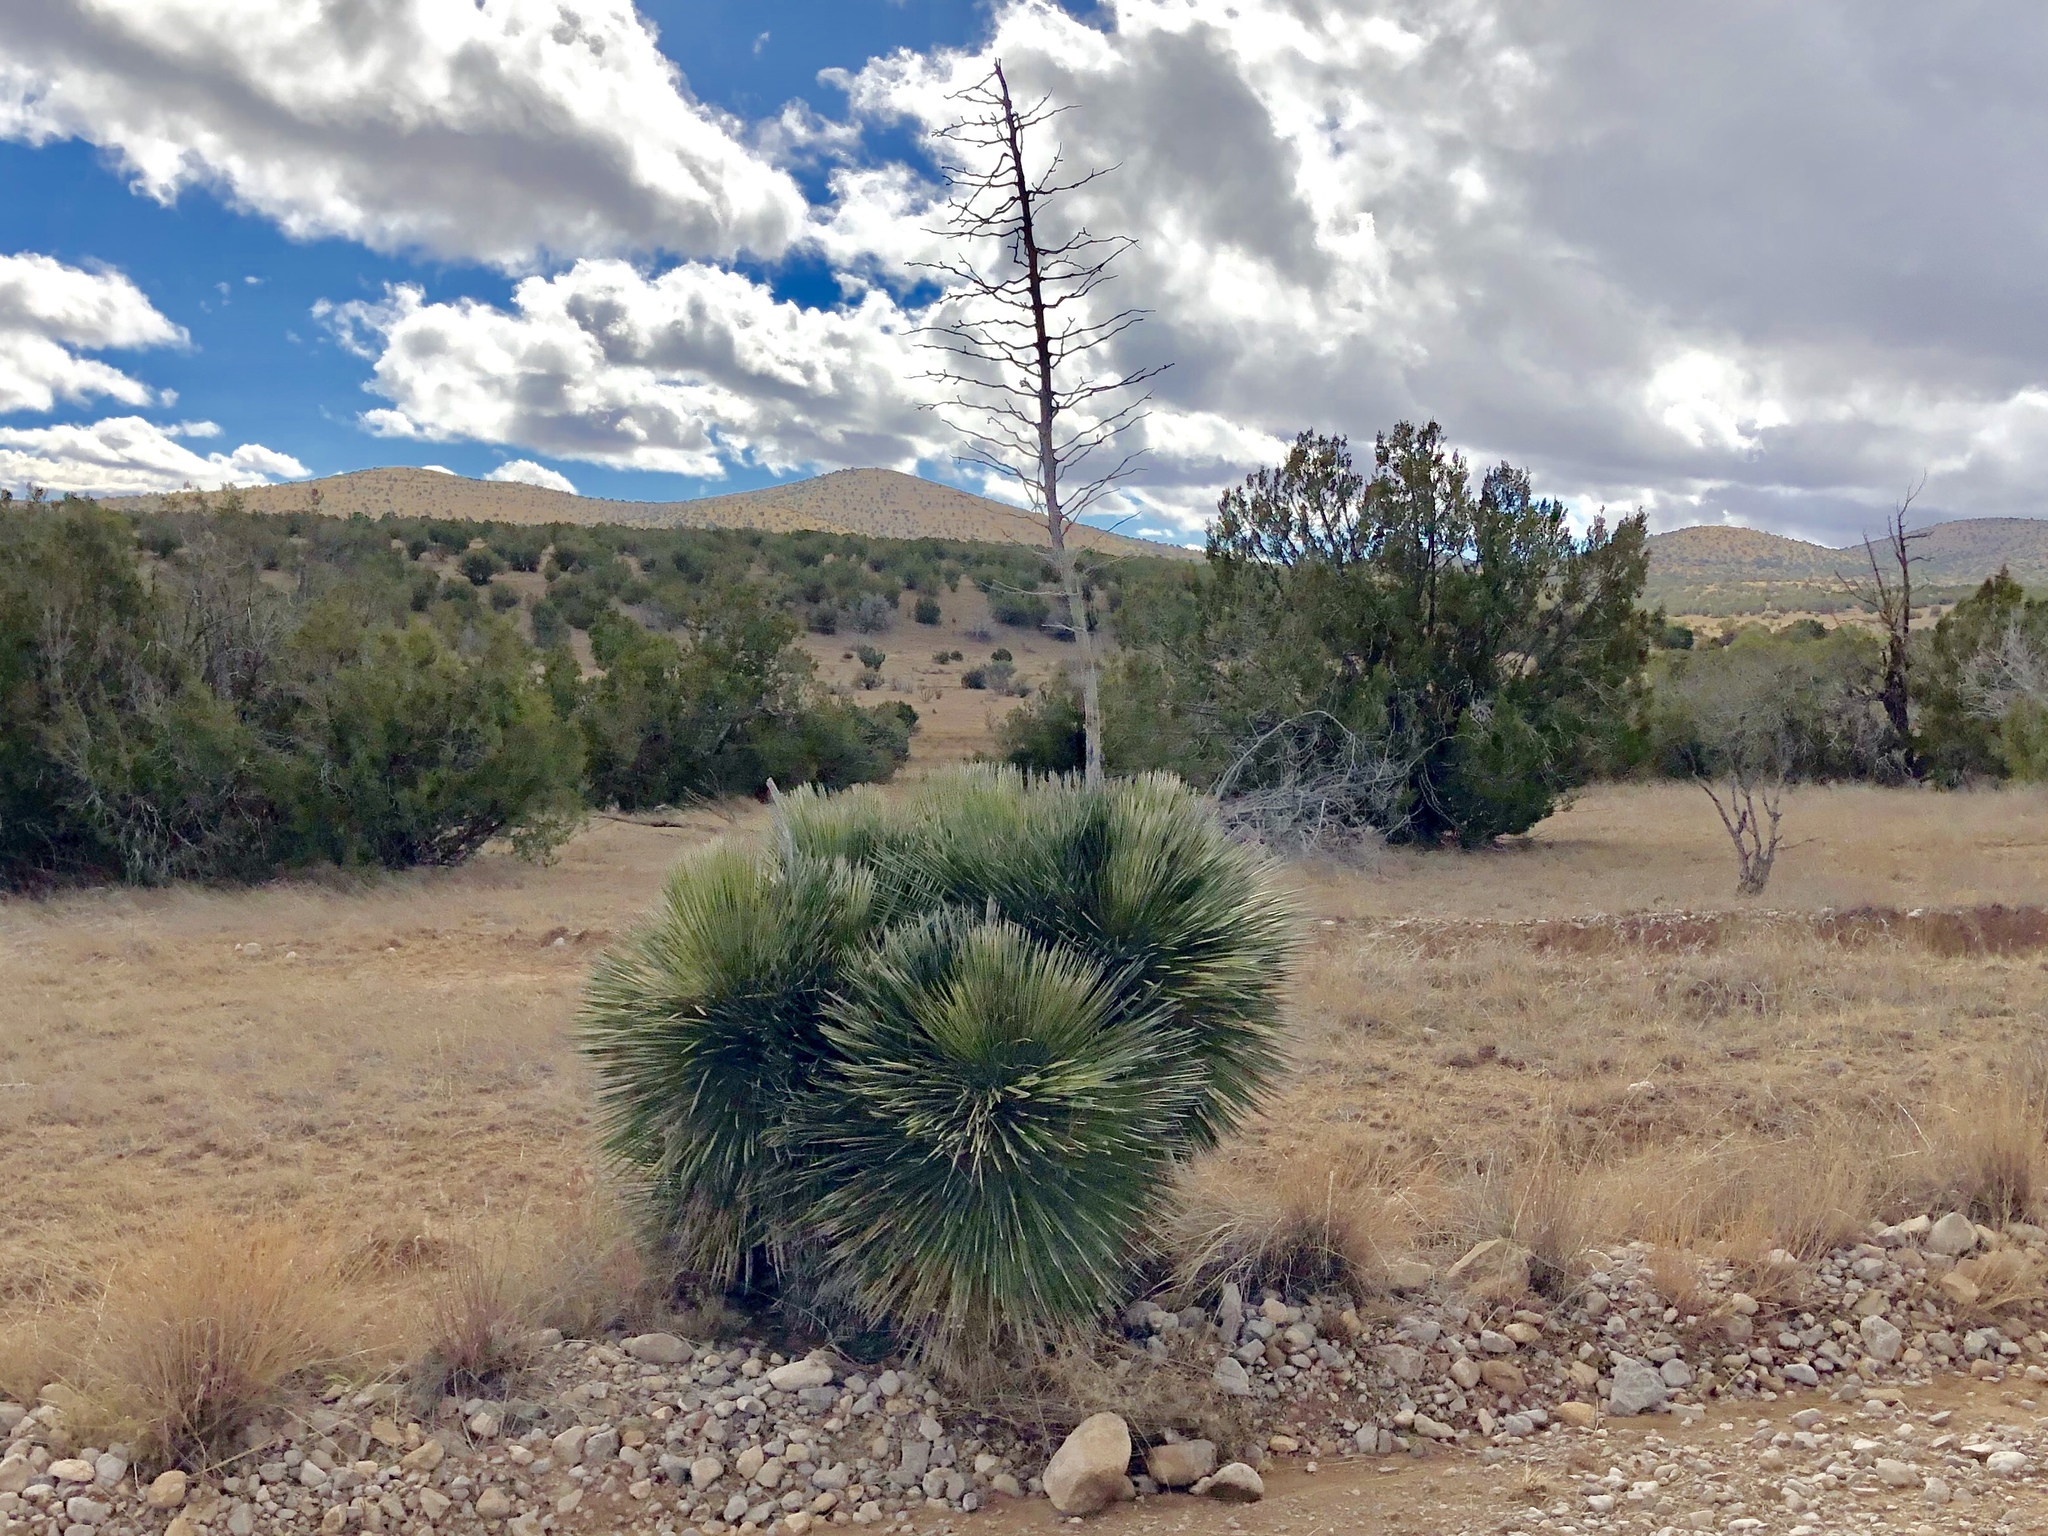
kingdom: Plantae
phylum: Tracheophyta
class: Liliopsida
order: Asparagales
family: Asparagaceae
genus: Yucca
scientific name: Yucca elata
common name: Palmella
